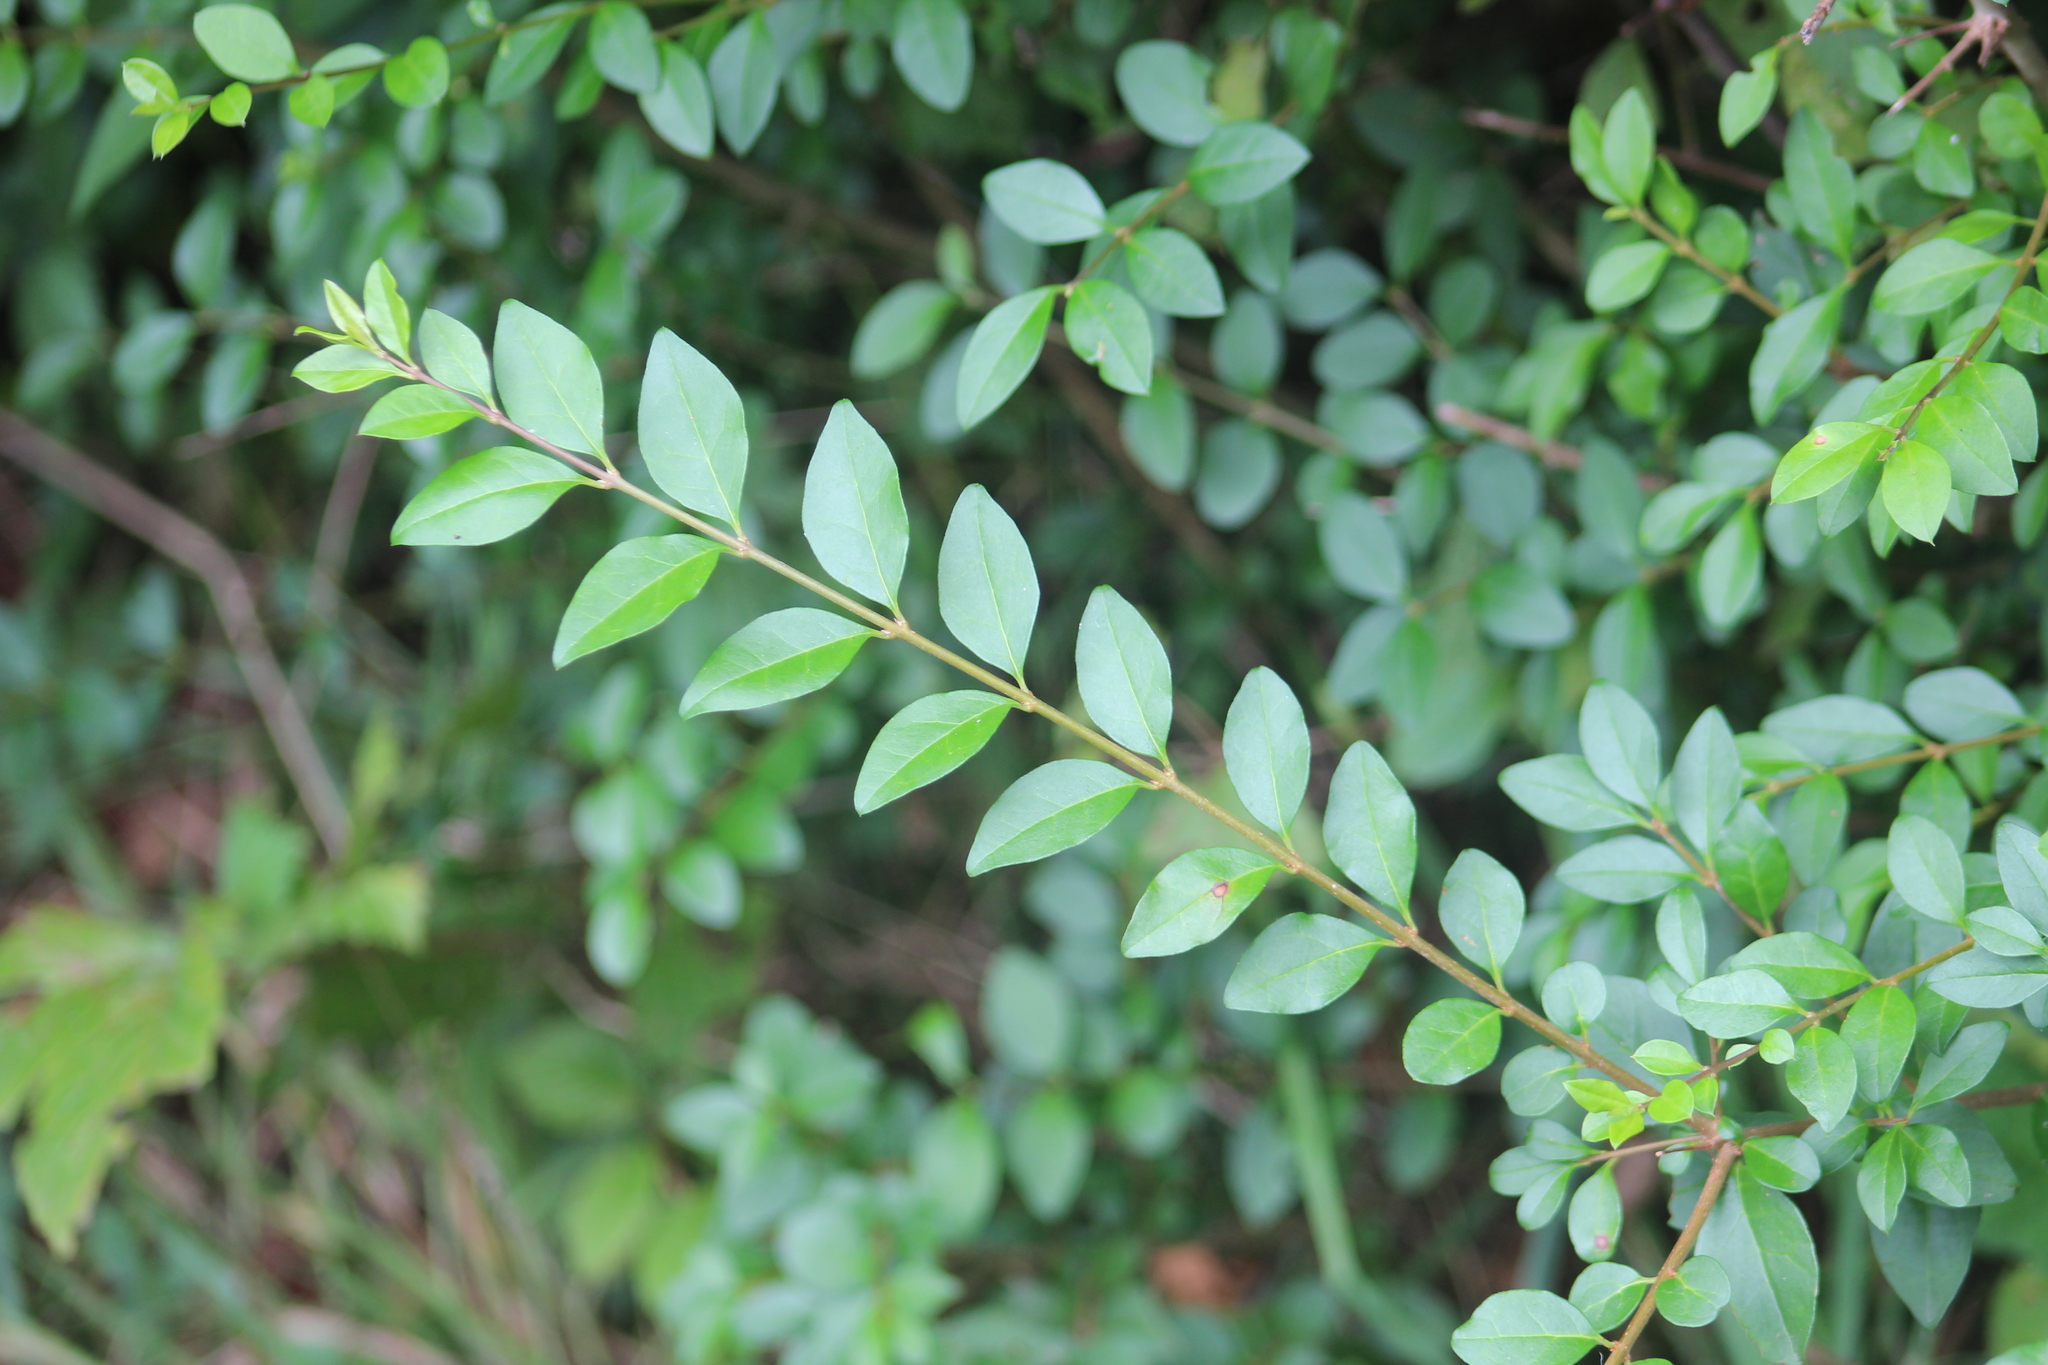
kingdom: Plantae
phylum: Tracheophyta
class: Magnoliopsida
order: Lamiales
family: Oleaceae
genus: Ligustrum
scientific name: Ligustrum obtusifolium
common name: Border privet
